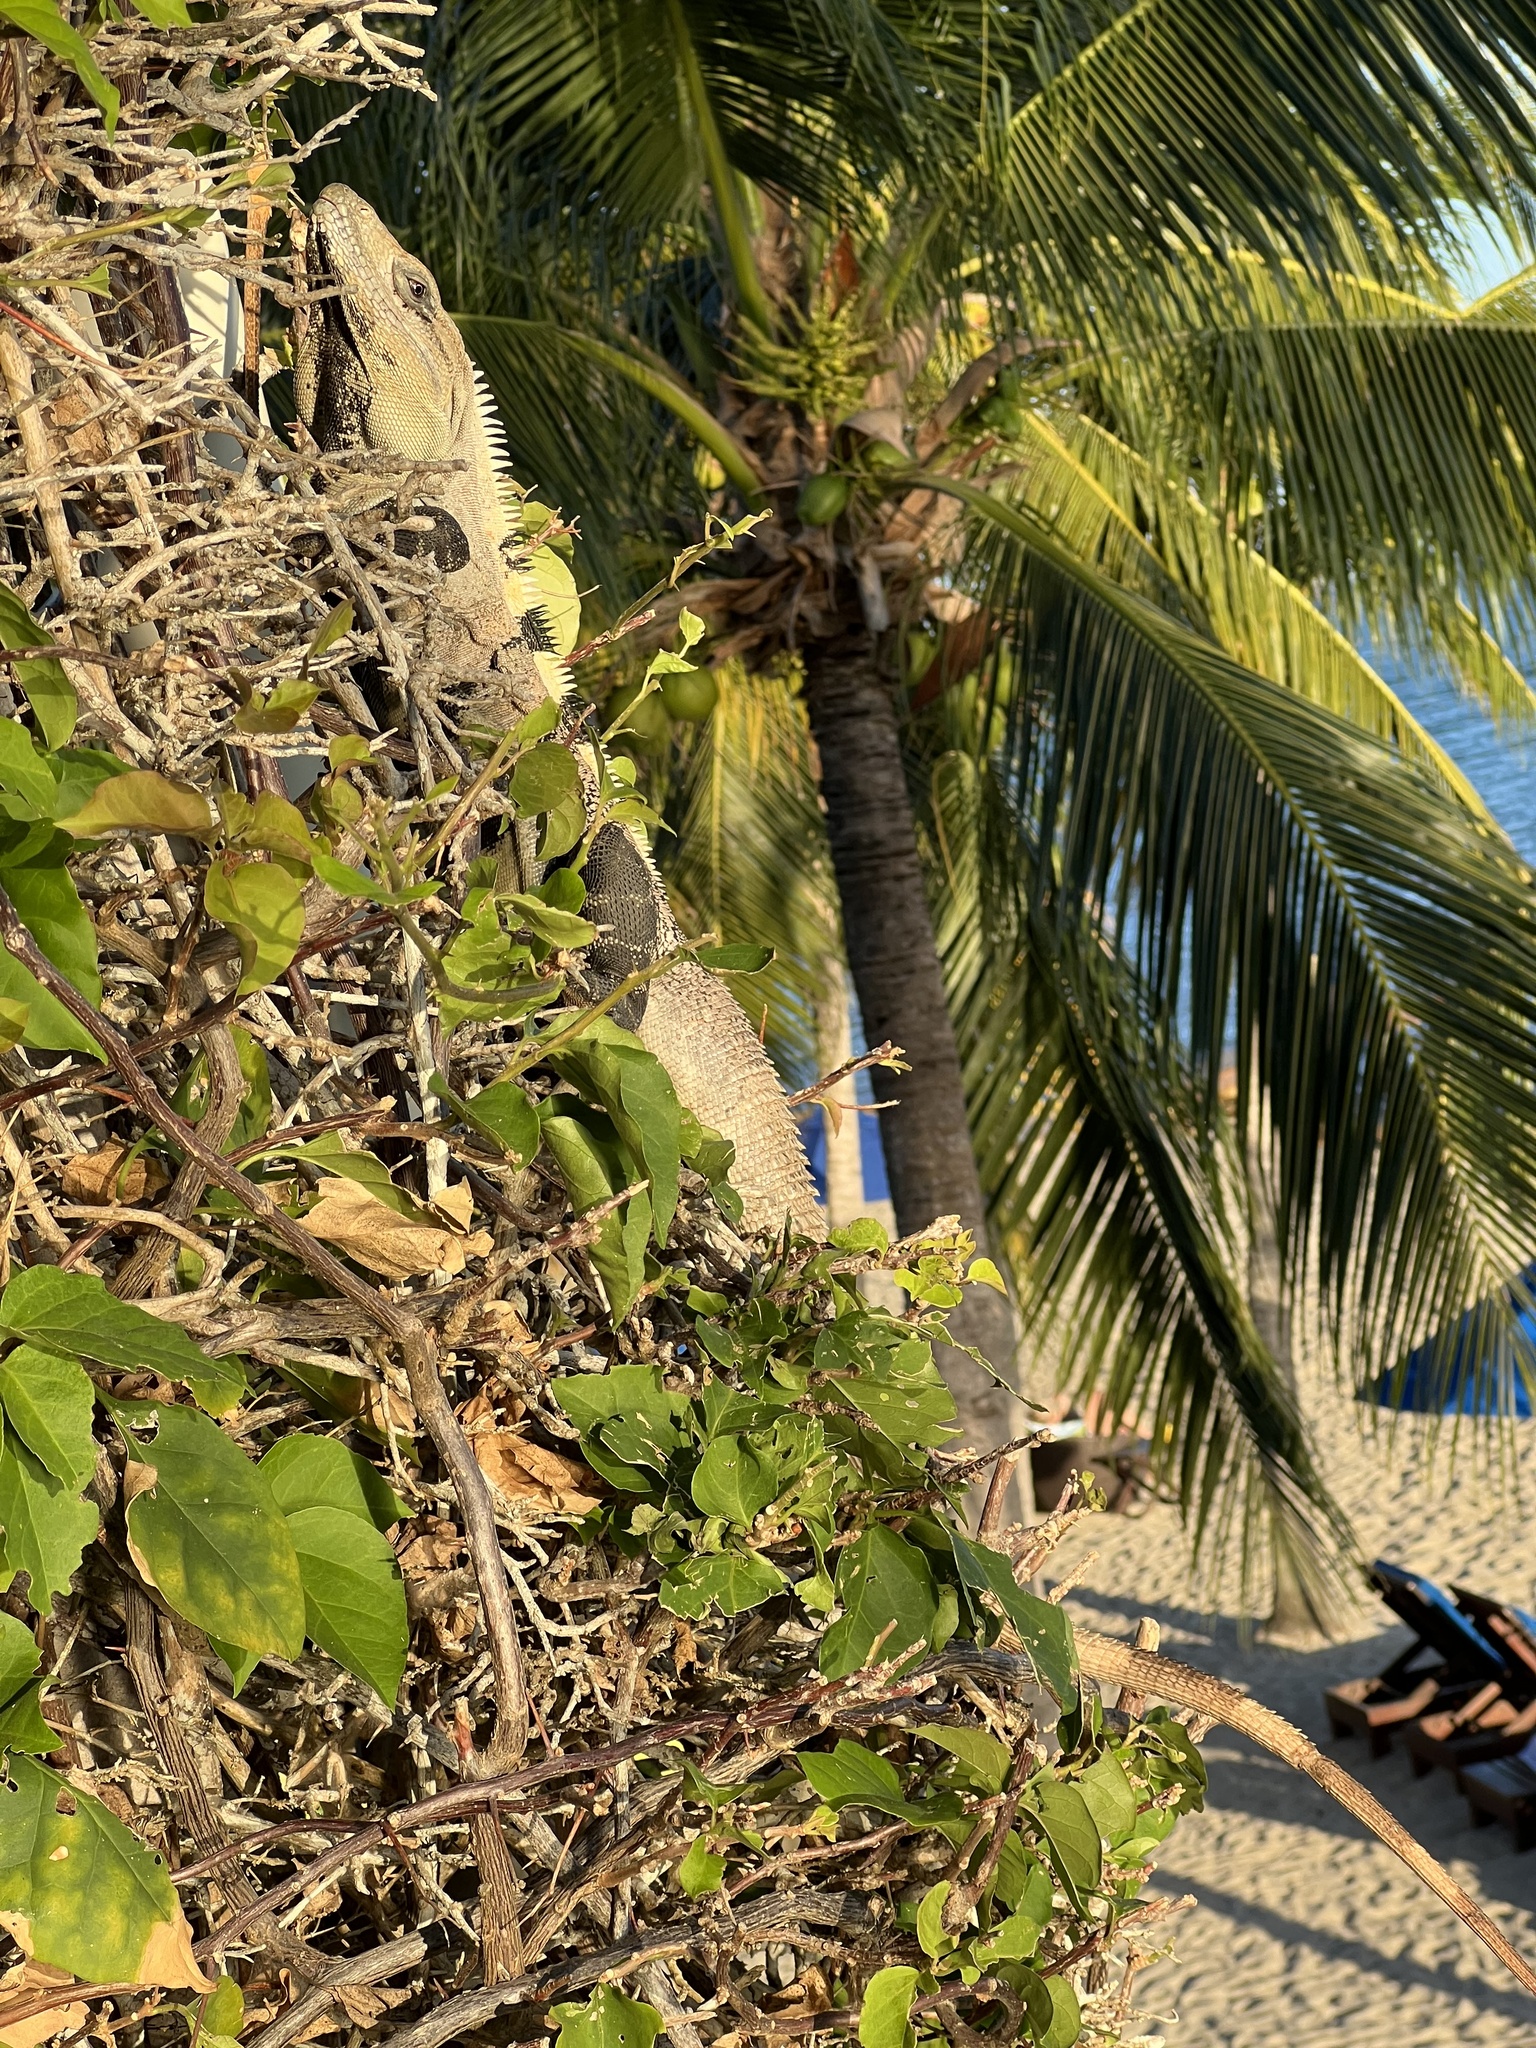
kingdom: Animalia
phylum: Chordata
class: Squamata
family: Iguanidae
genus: Ctenosaura
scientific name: Ctenosaura similis
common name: Black spiny-tailed iguana
